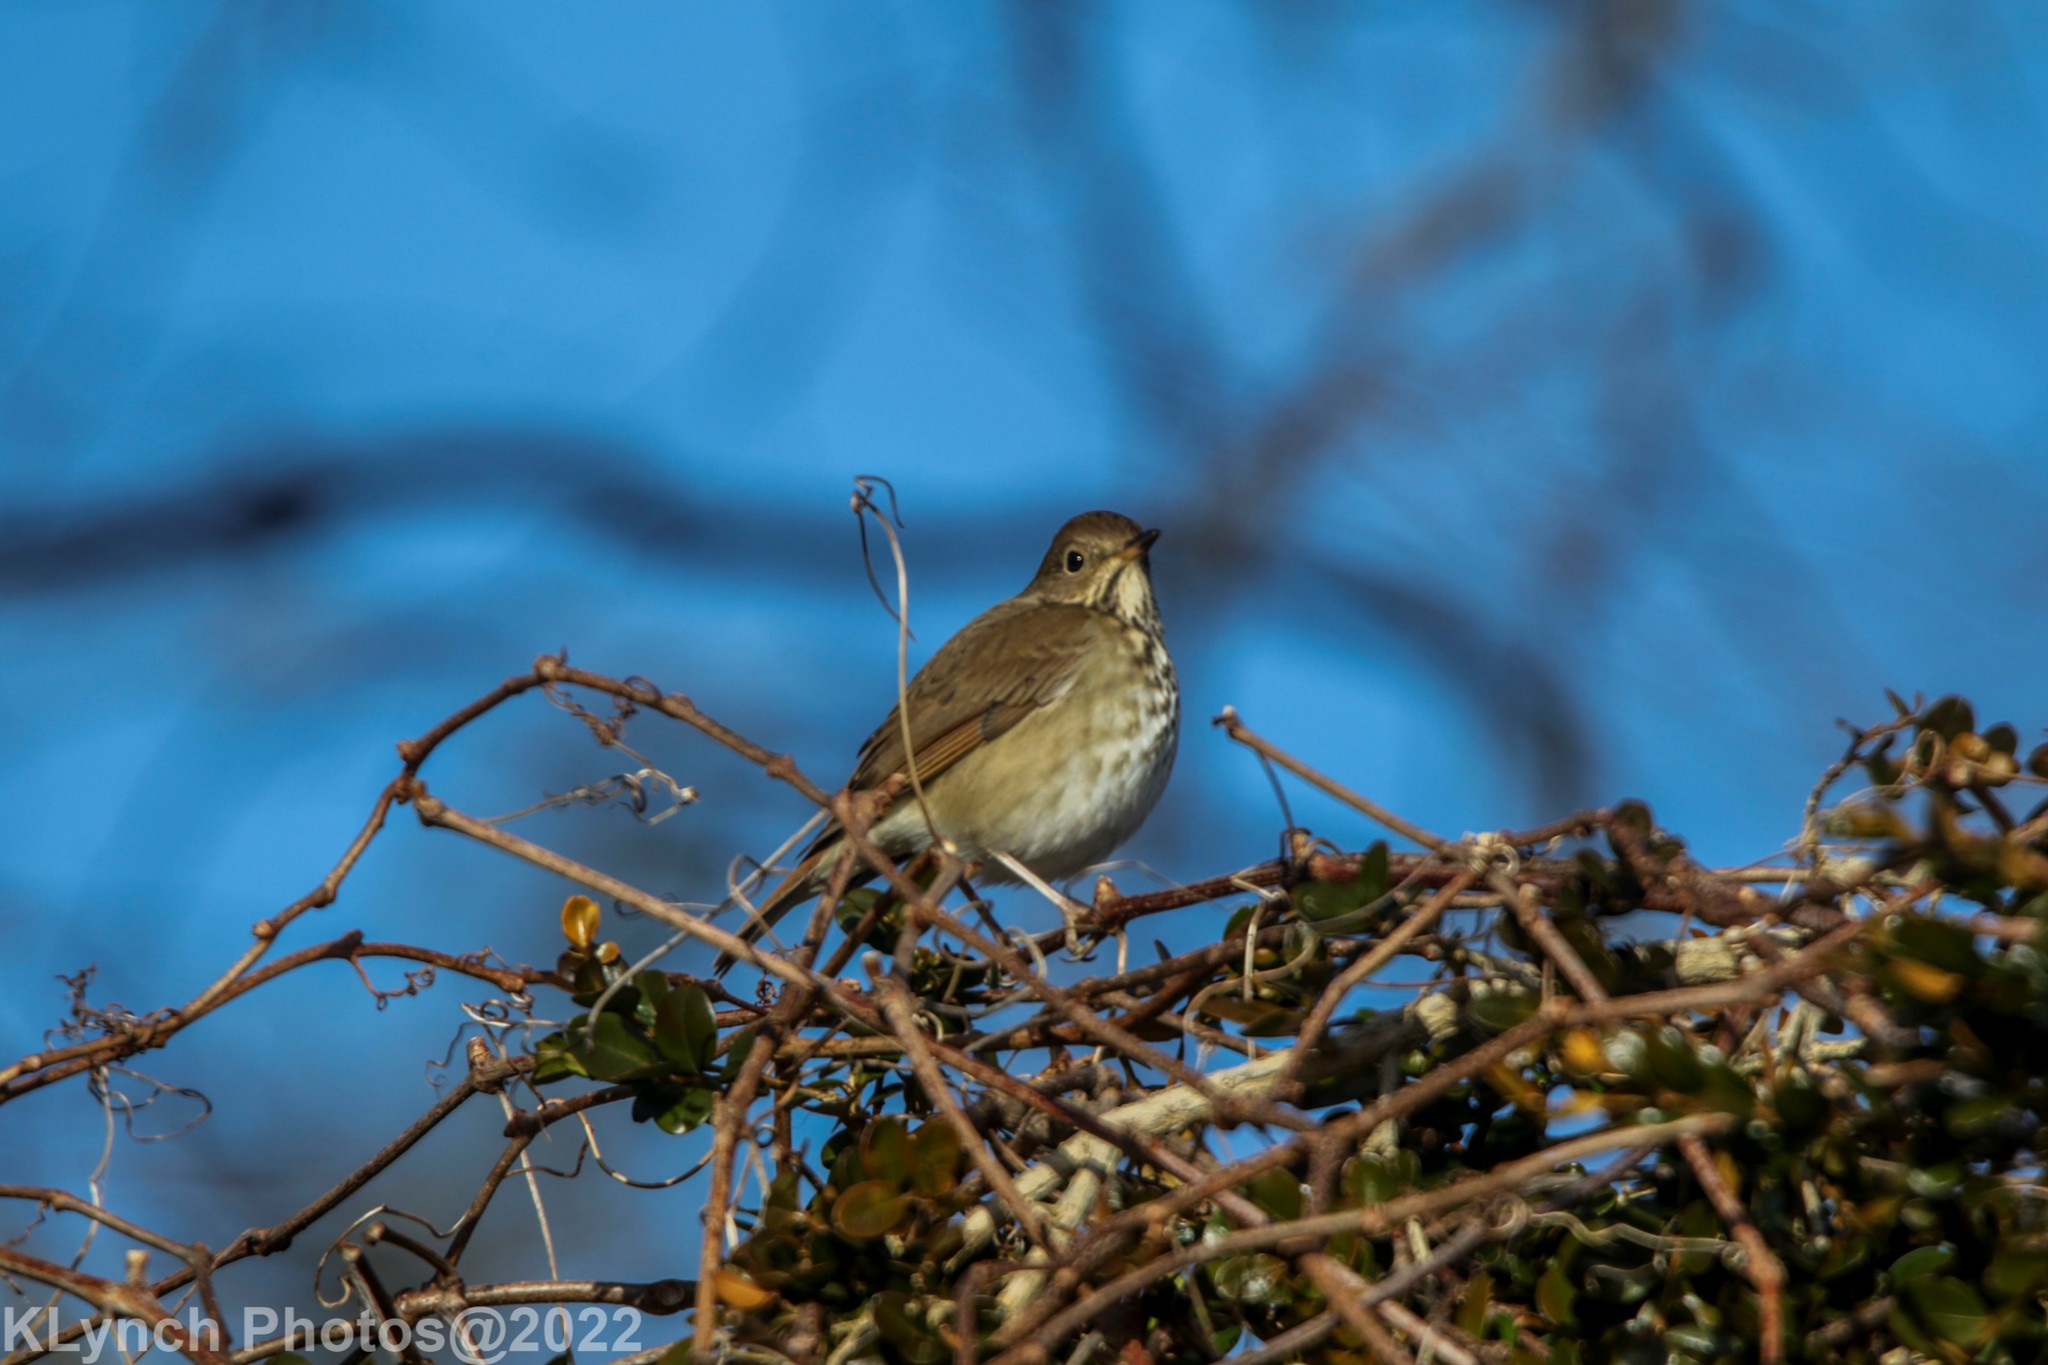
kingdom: Animalia
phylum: Chordata
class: Aves
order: Passeriformes
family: Turdidae
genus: Catharus
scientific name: Catharus guttatus
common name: Hermit thrush
